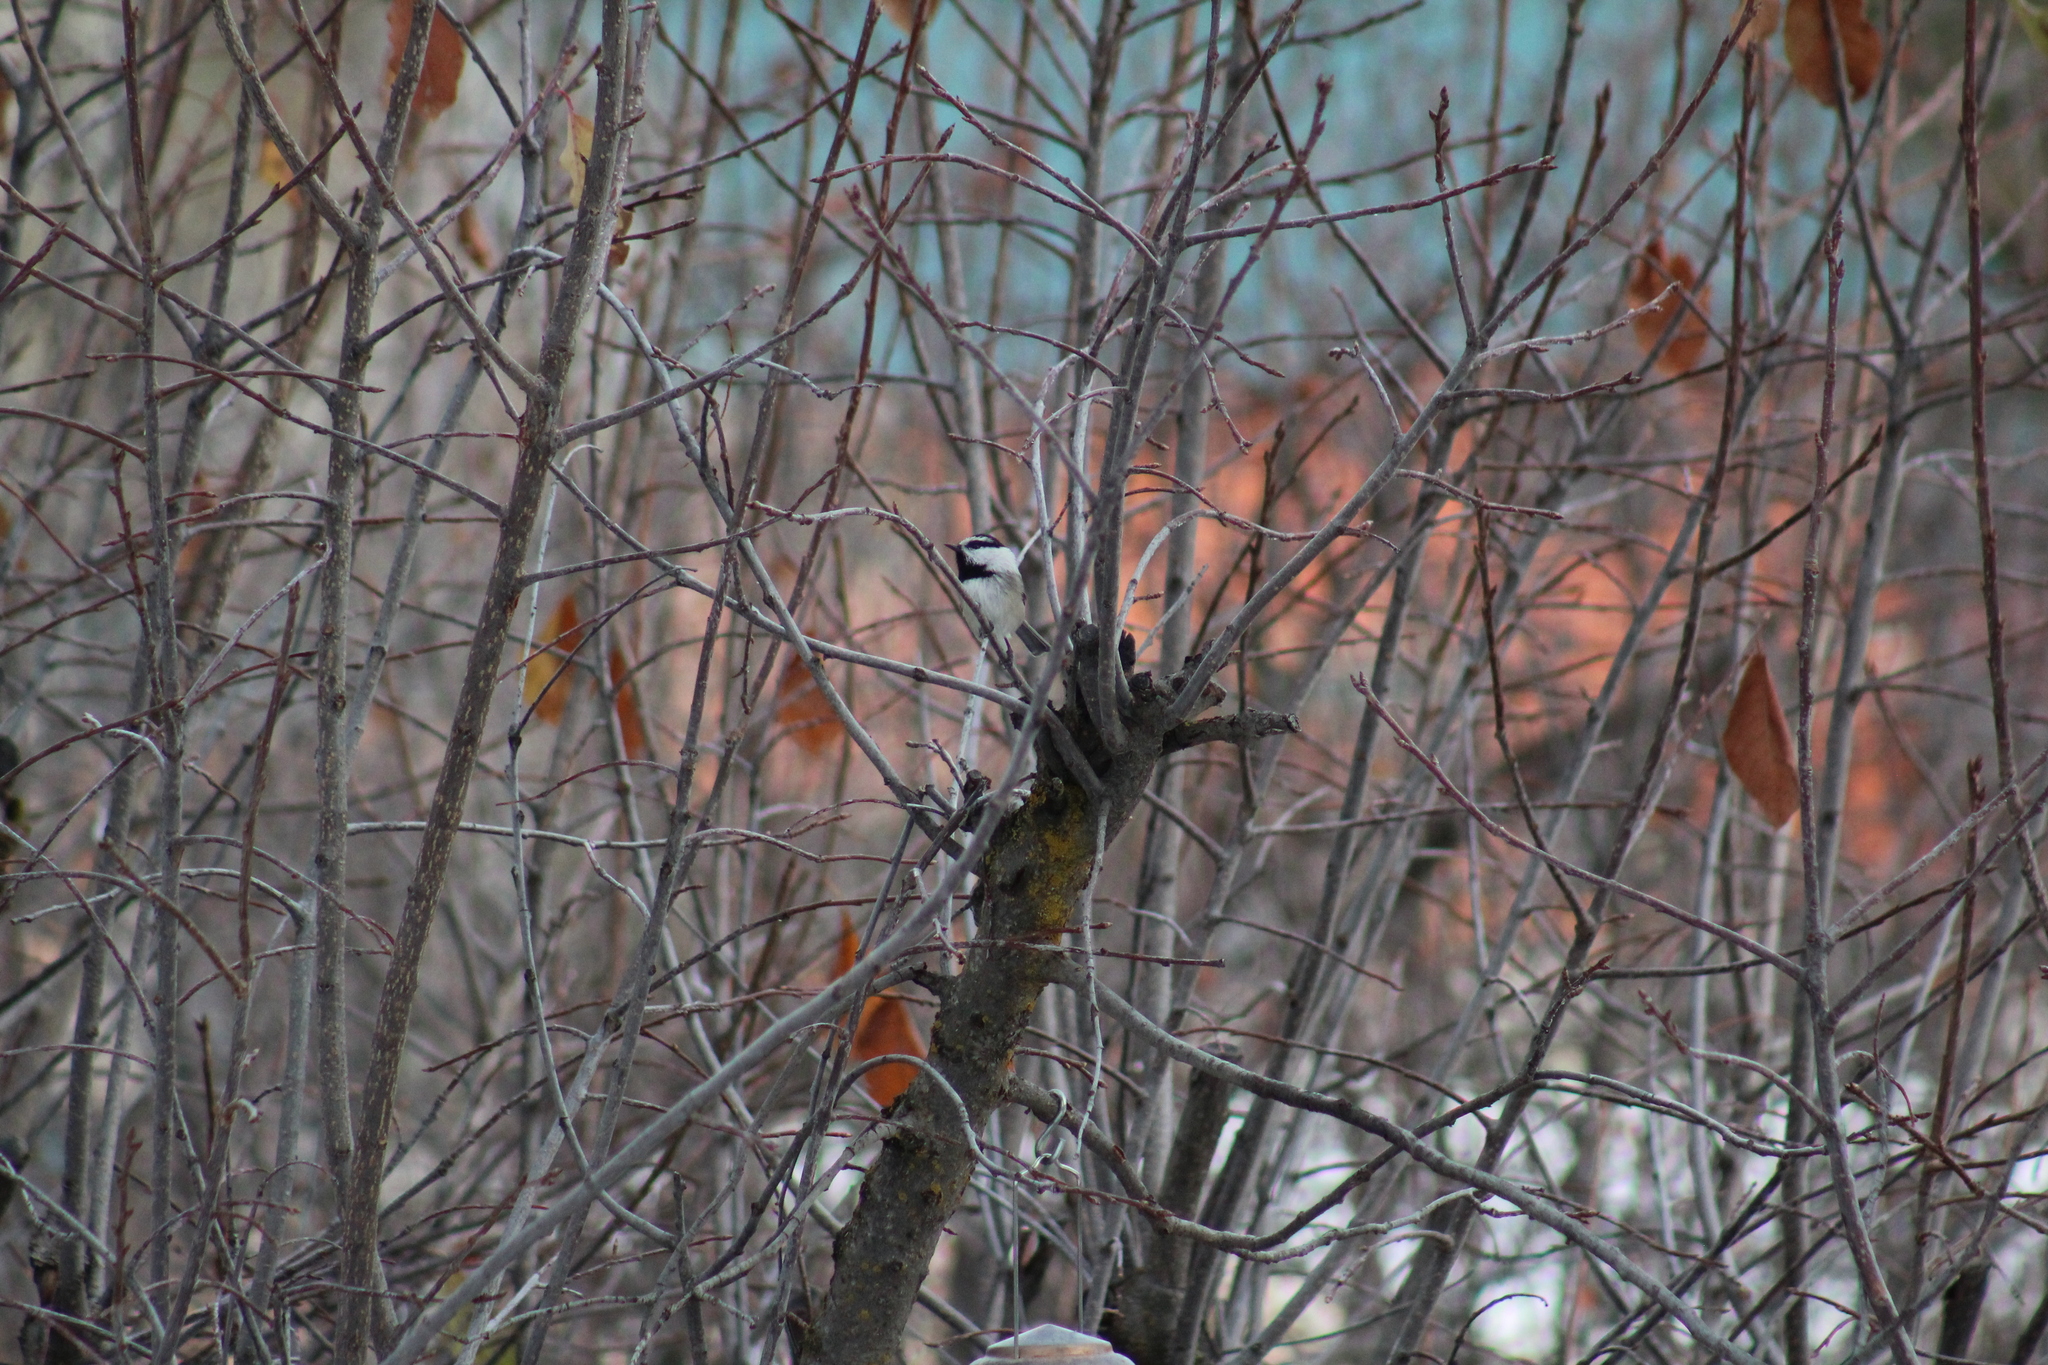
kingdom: Animalia
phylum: Chordata
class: Aves
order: Passeriformes
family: Paridae
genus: Poecile
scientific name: Poecile gambeli
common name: Mountain chickadee
